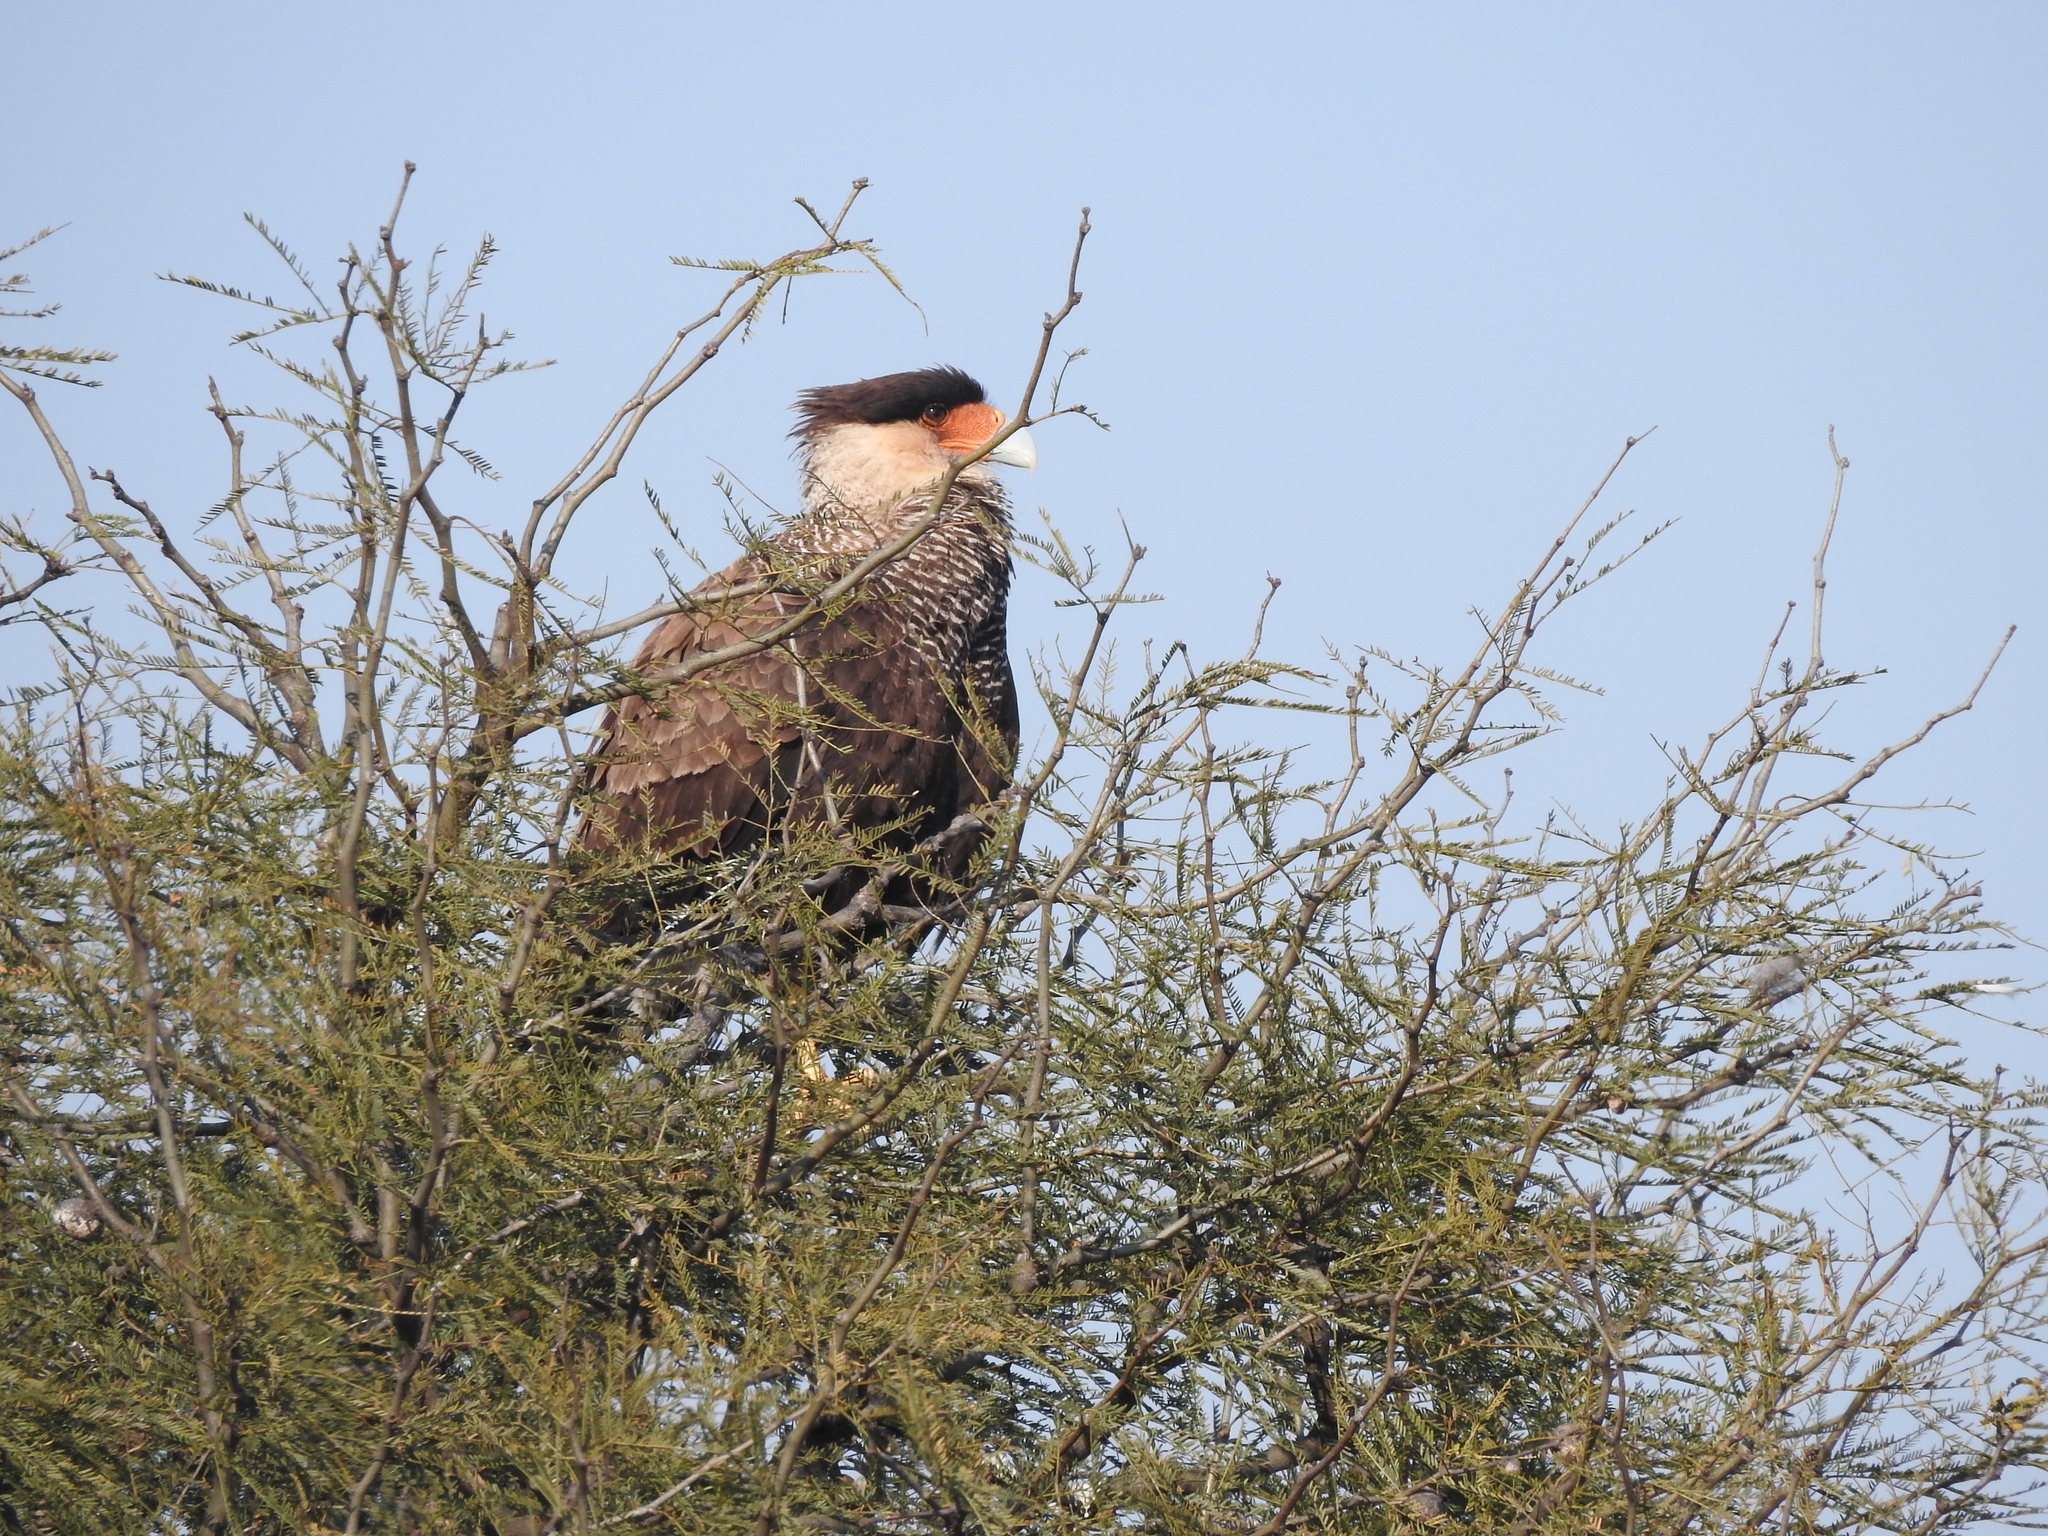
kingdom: Animalia
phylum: Chordata
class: Aves
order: Falconiformes
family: Falconidae
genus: Caracara
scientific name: Caracara plancus
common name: Southern caracara
